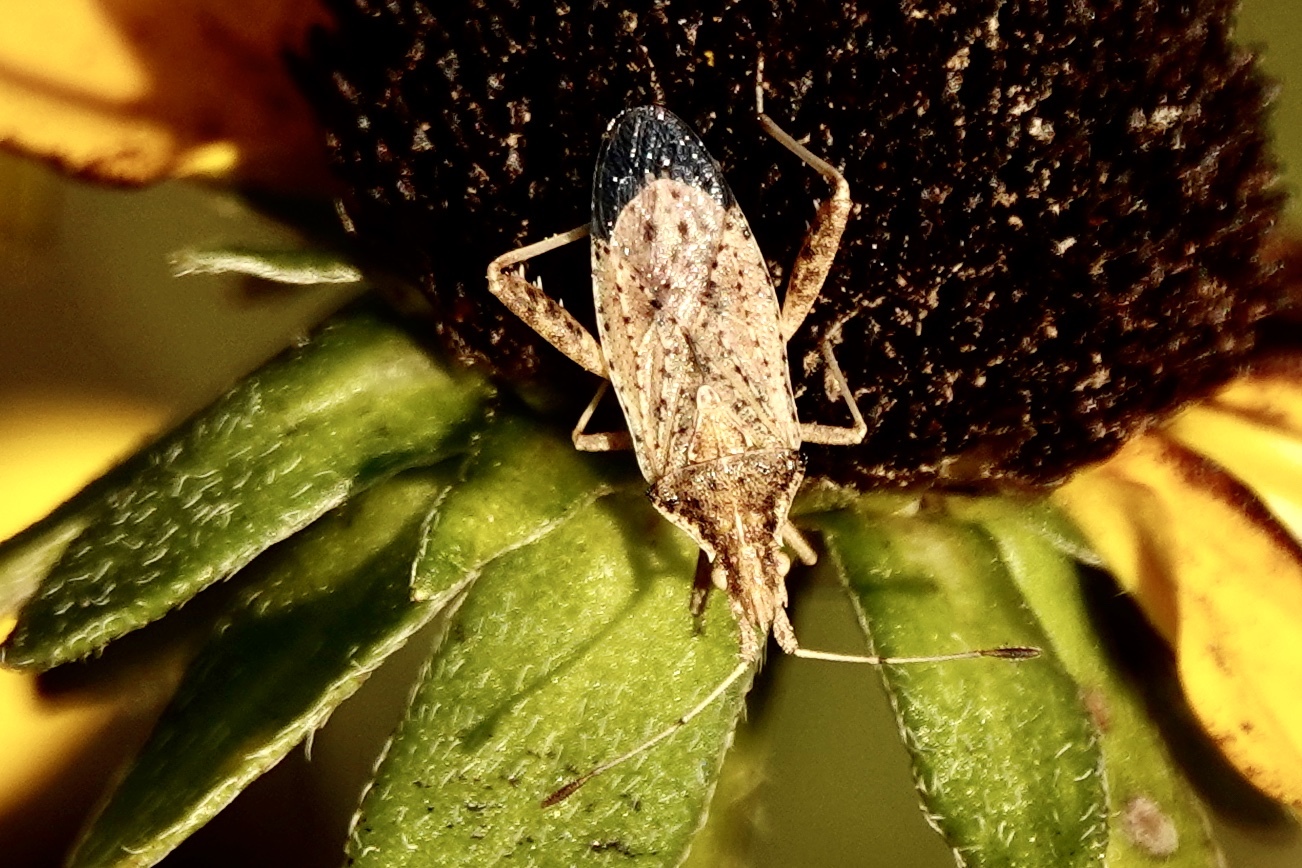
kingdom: Animalia
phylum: Arthropoda
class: Insecta
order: Hemiptera
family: Rhopalidae
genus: Harmostes
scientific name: Harmostes reflexulus
